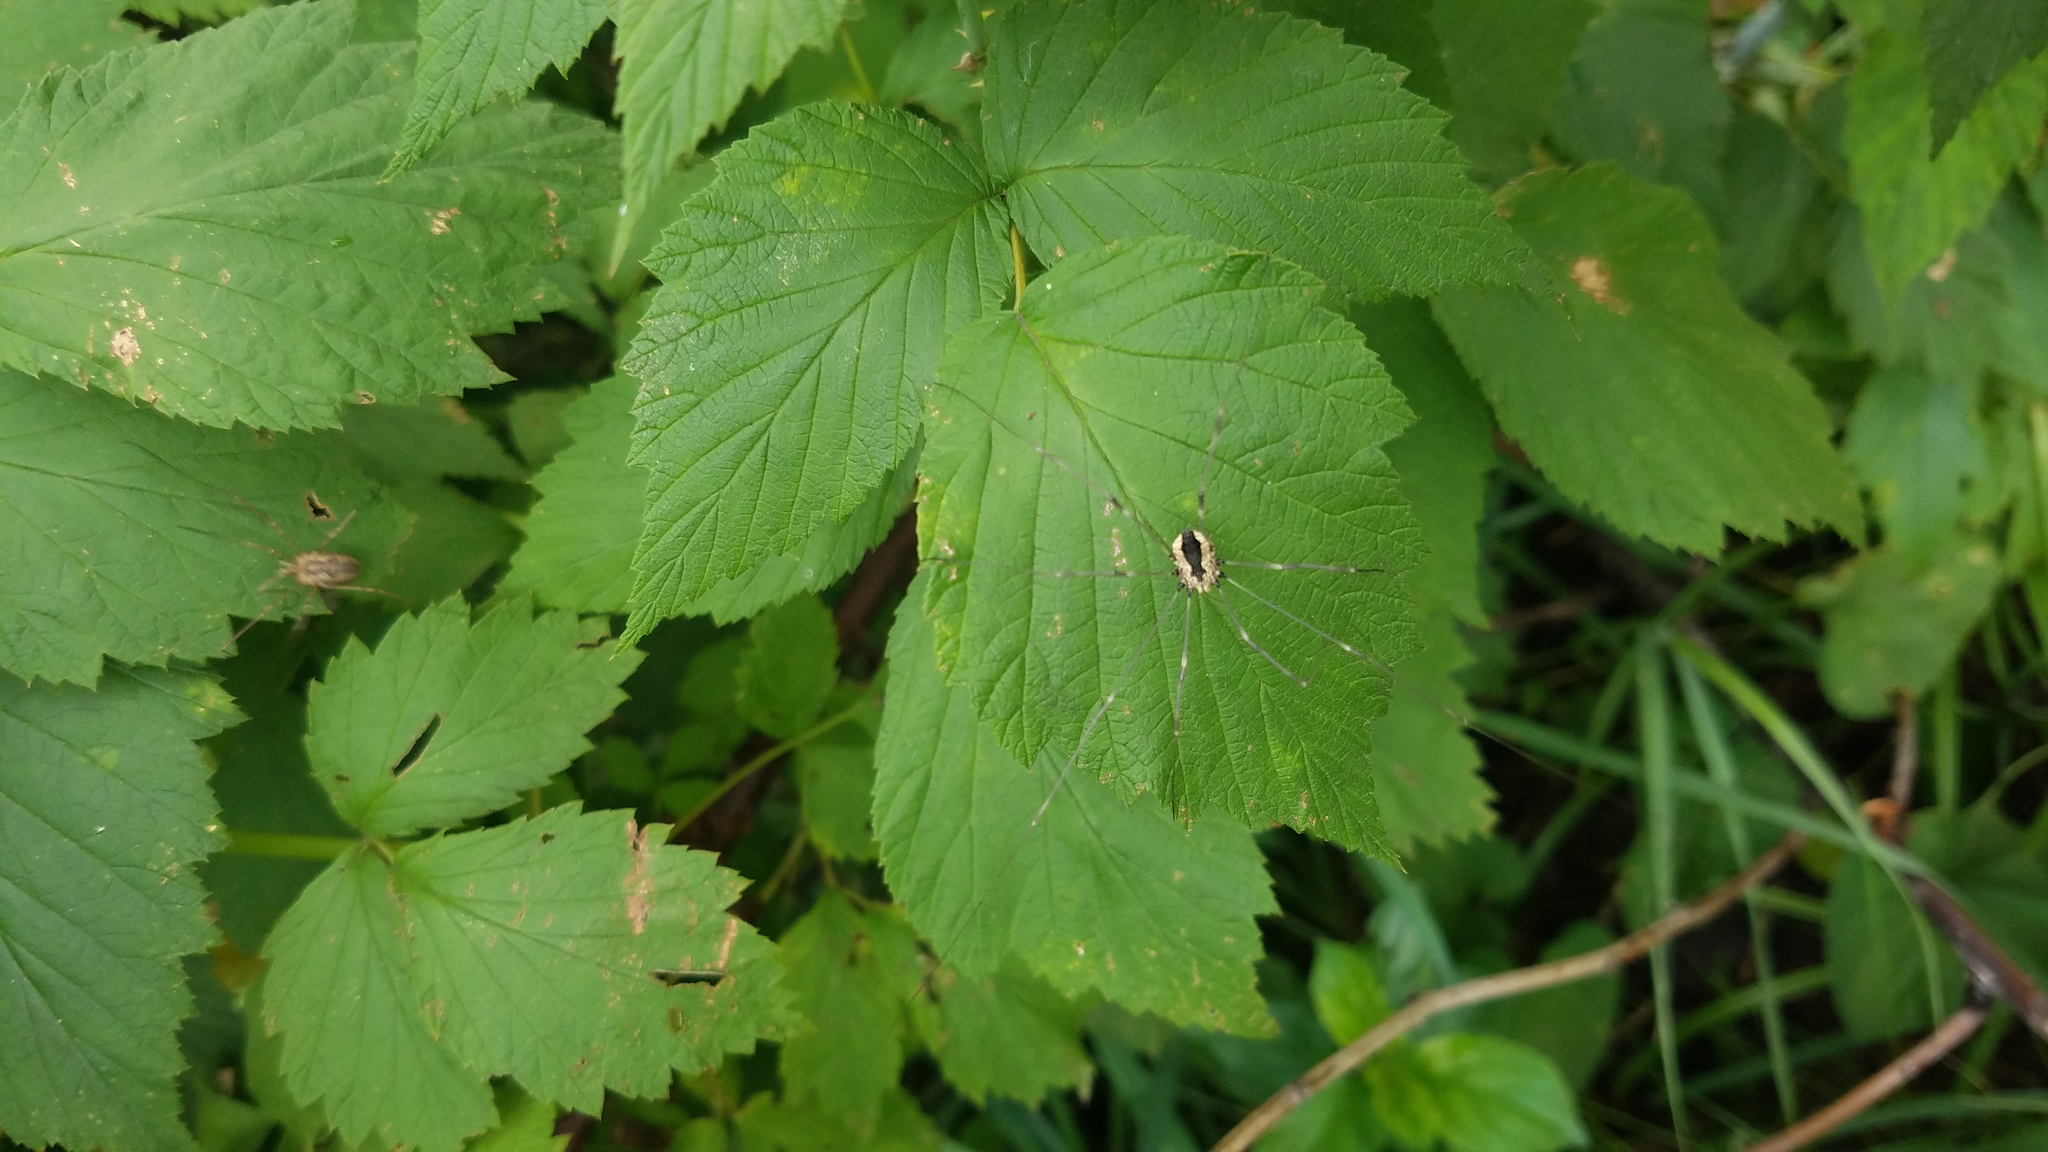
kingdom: Animalia
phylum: Arthropoda
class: Arachnida
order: Opiliones
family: Phalangiidae
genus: Phalangium
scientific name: Phalangium opilio
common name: Daddy longleg
